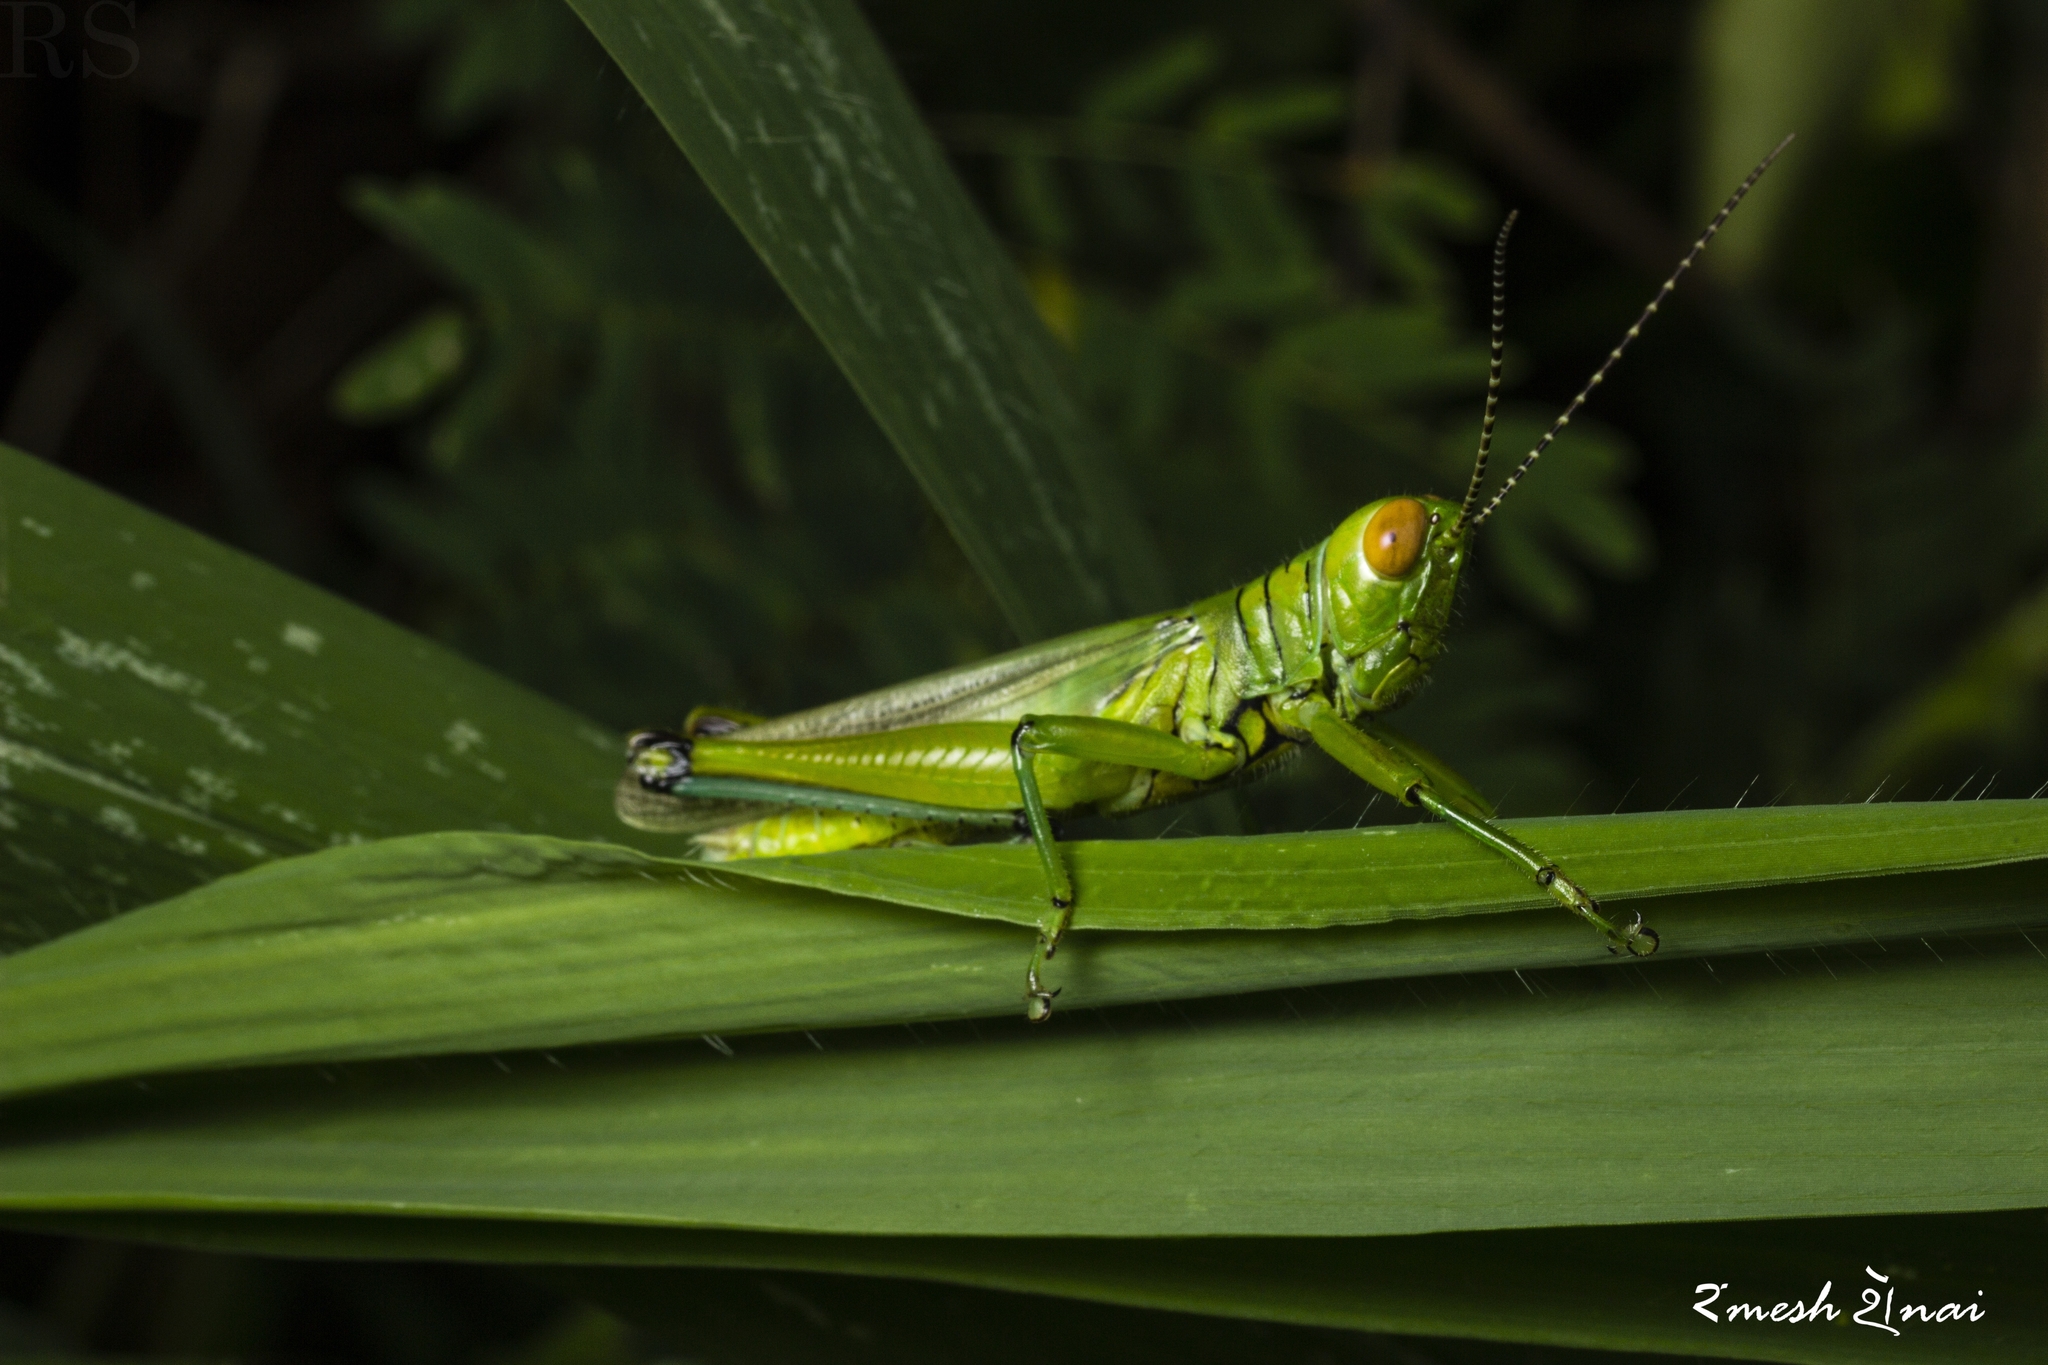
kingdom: Animalia
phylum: Arthropoda
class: Insecta
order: Orthoptera
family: Acrididae
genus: Hieroglyphus
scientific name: Hieroglyphus annulicornis
